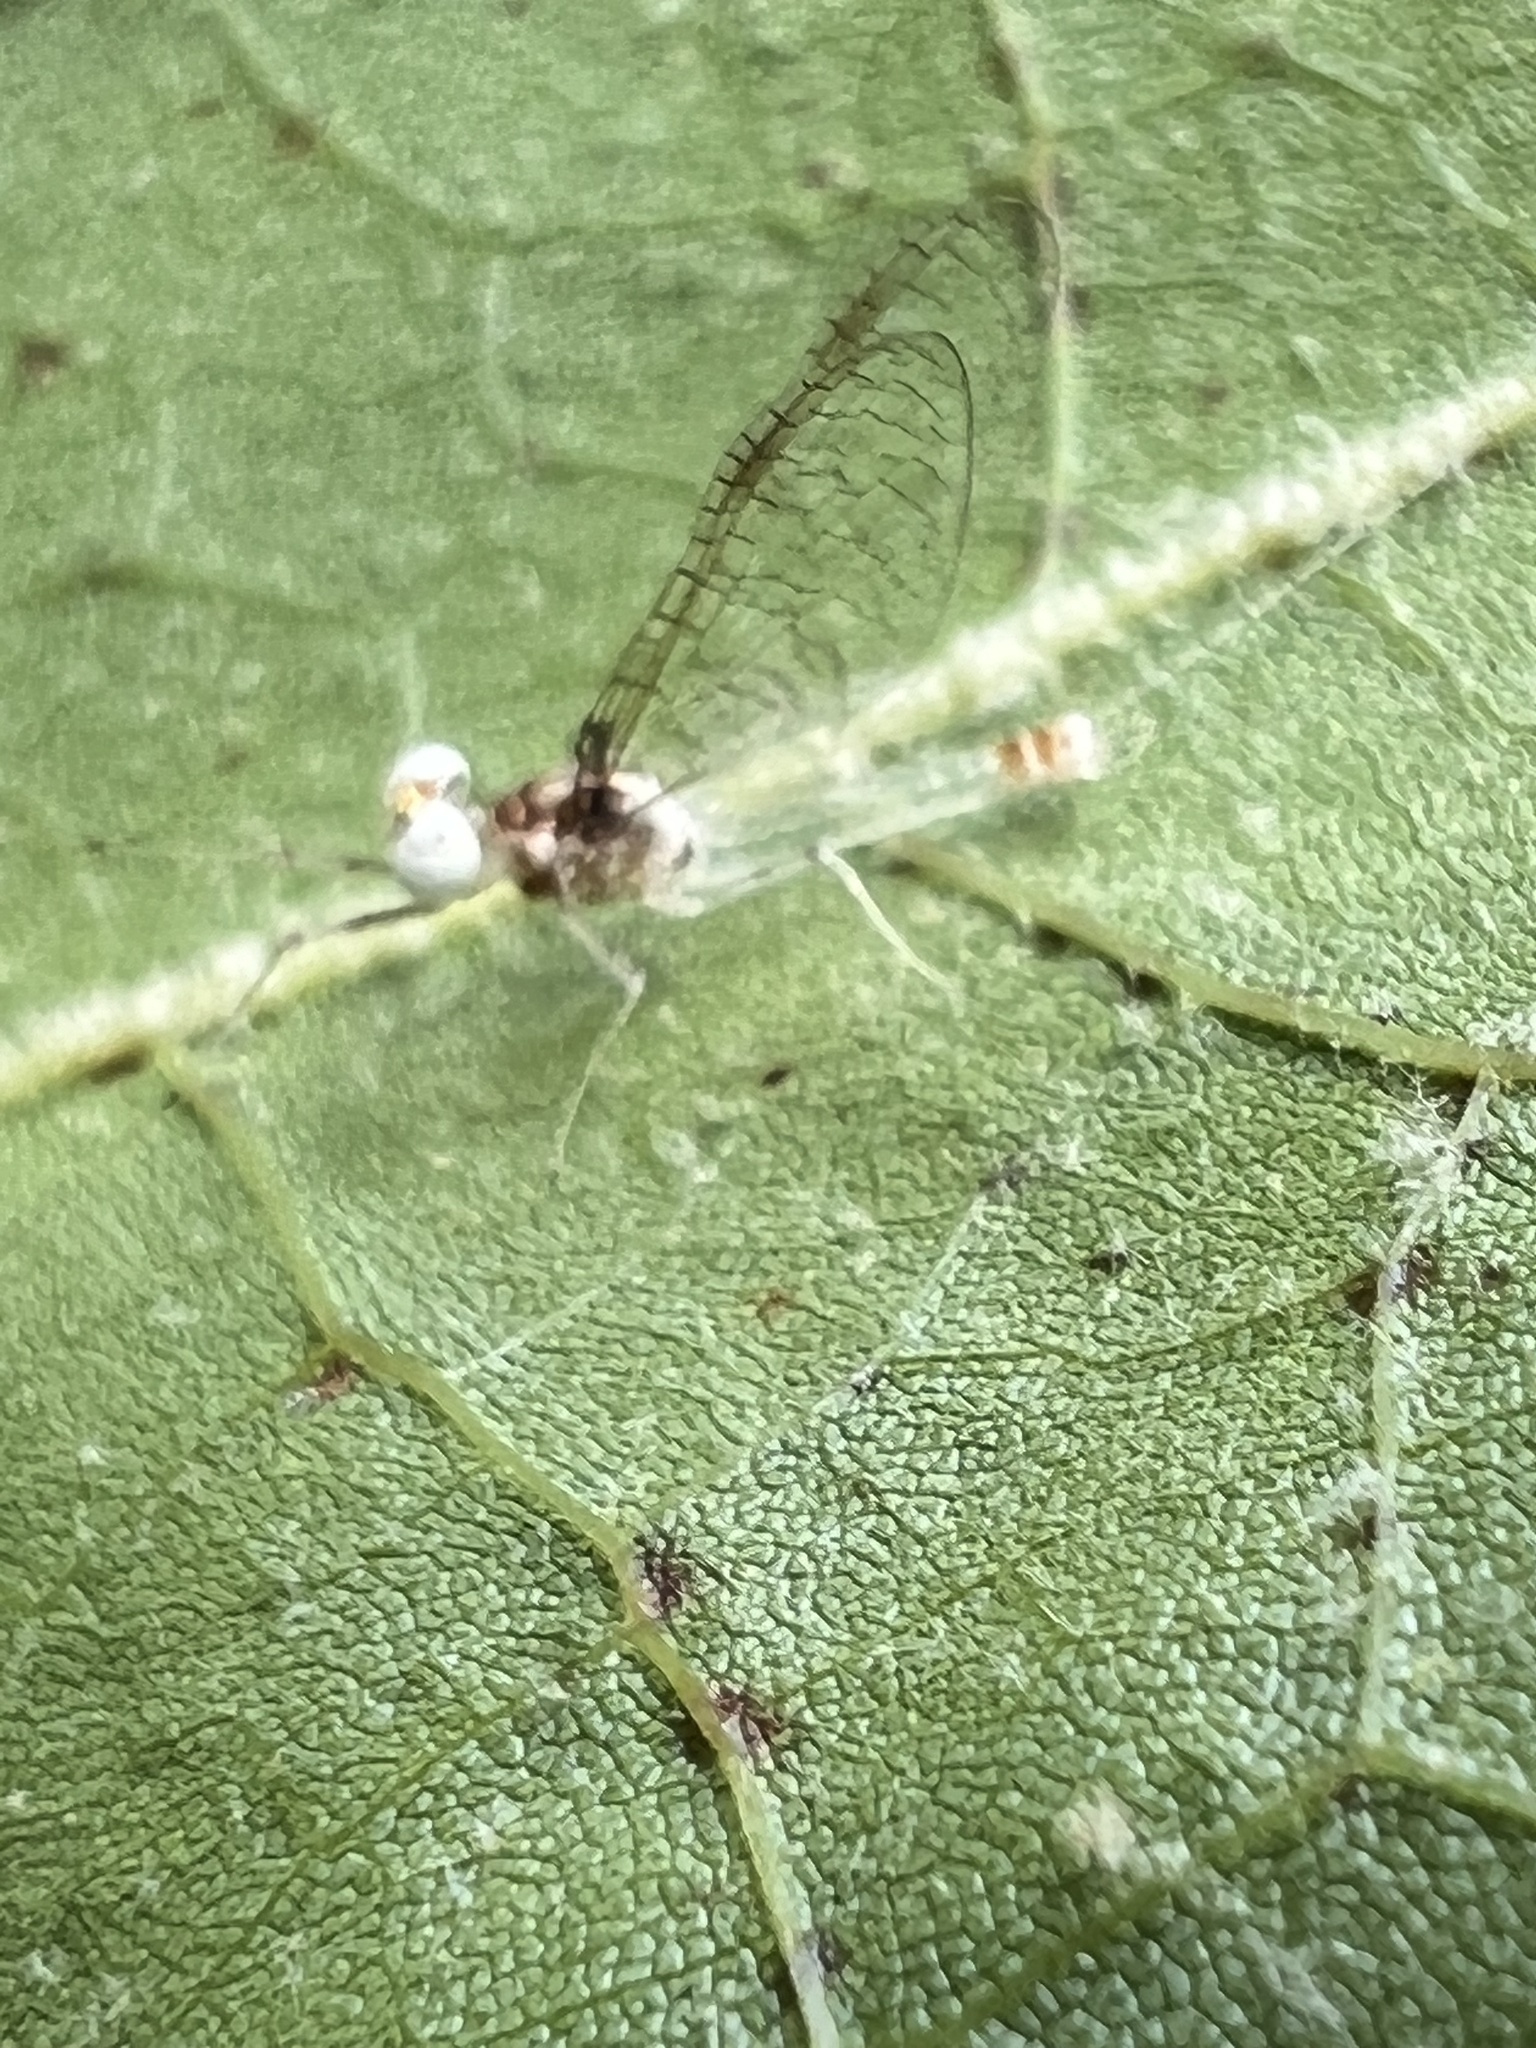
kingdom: Animalia
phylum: Arthropoda
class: Insecta
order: Ephemeroptera
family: Heptageniidae
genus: Maccaffertium
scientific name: Maccaffertium modestum
